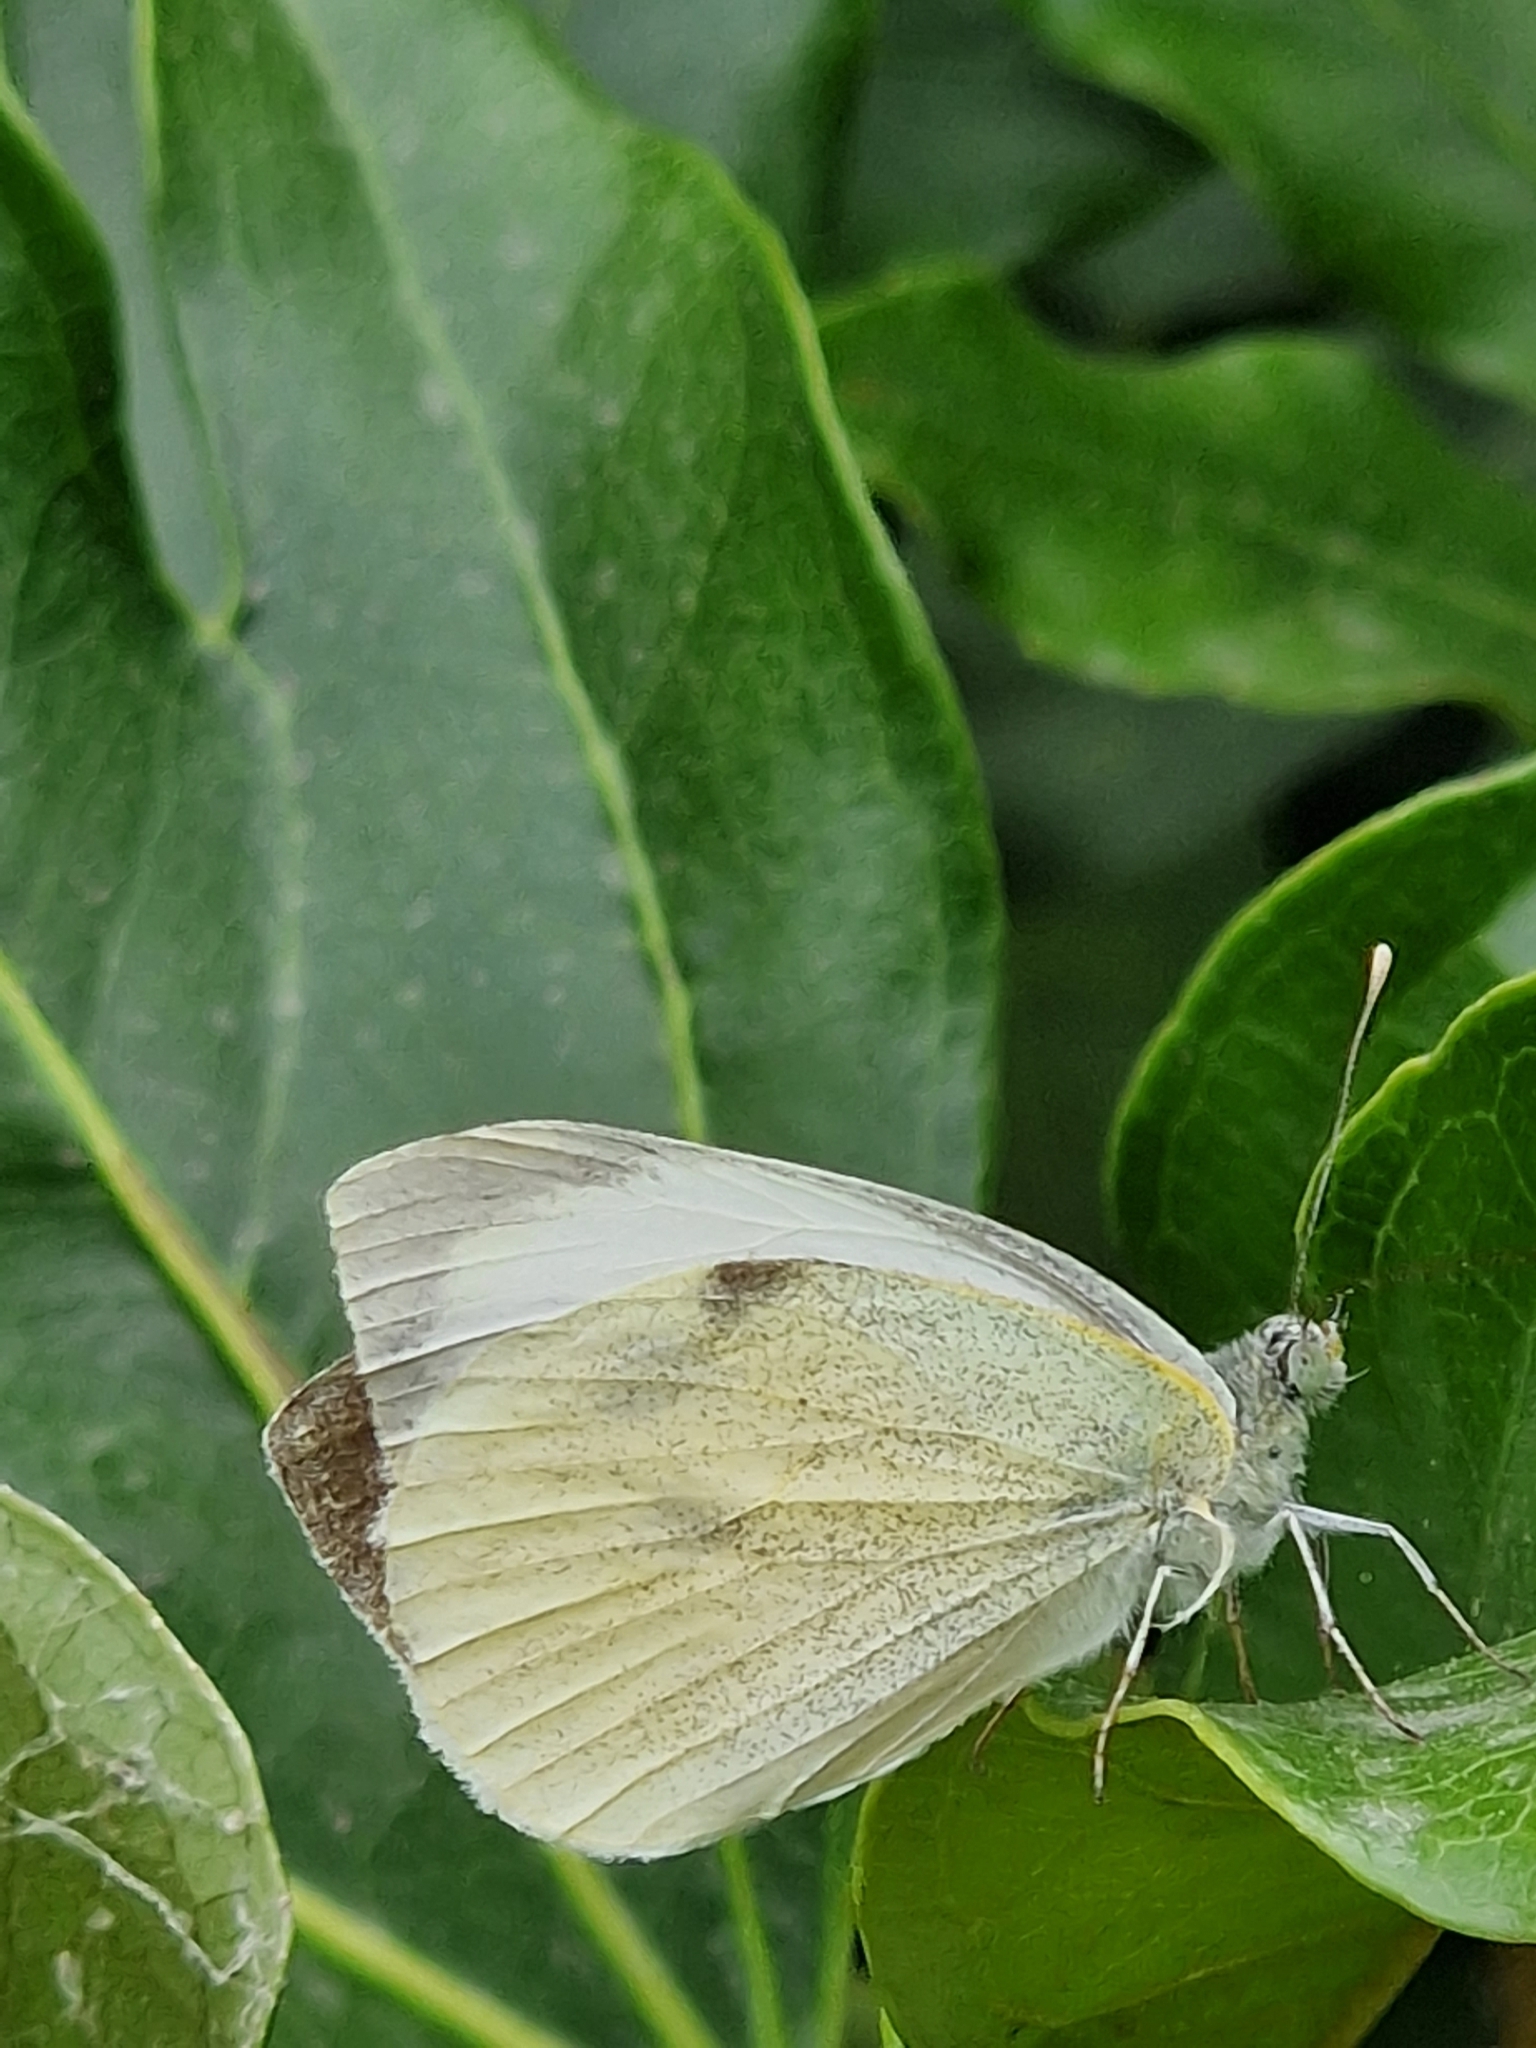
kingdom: Animalia
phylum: Arthropoda
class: Insecta
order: Lepidoptera
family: Pieridae
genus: Pieris
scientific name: Pieris brassicae
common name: Large white
